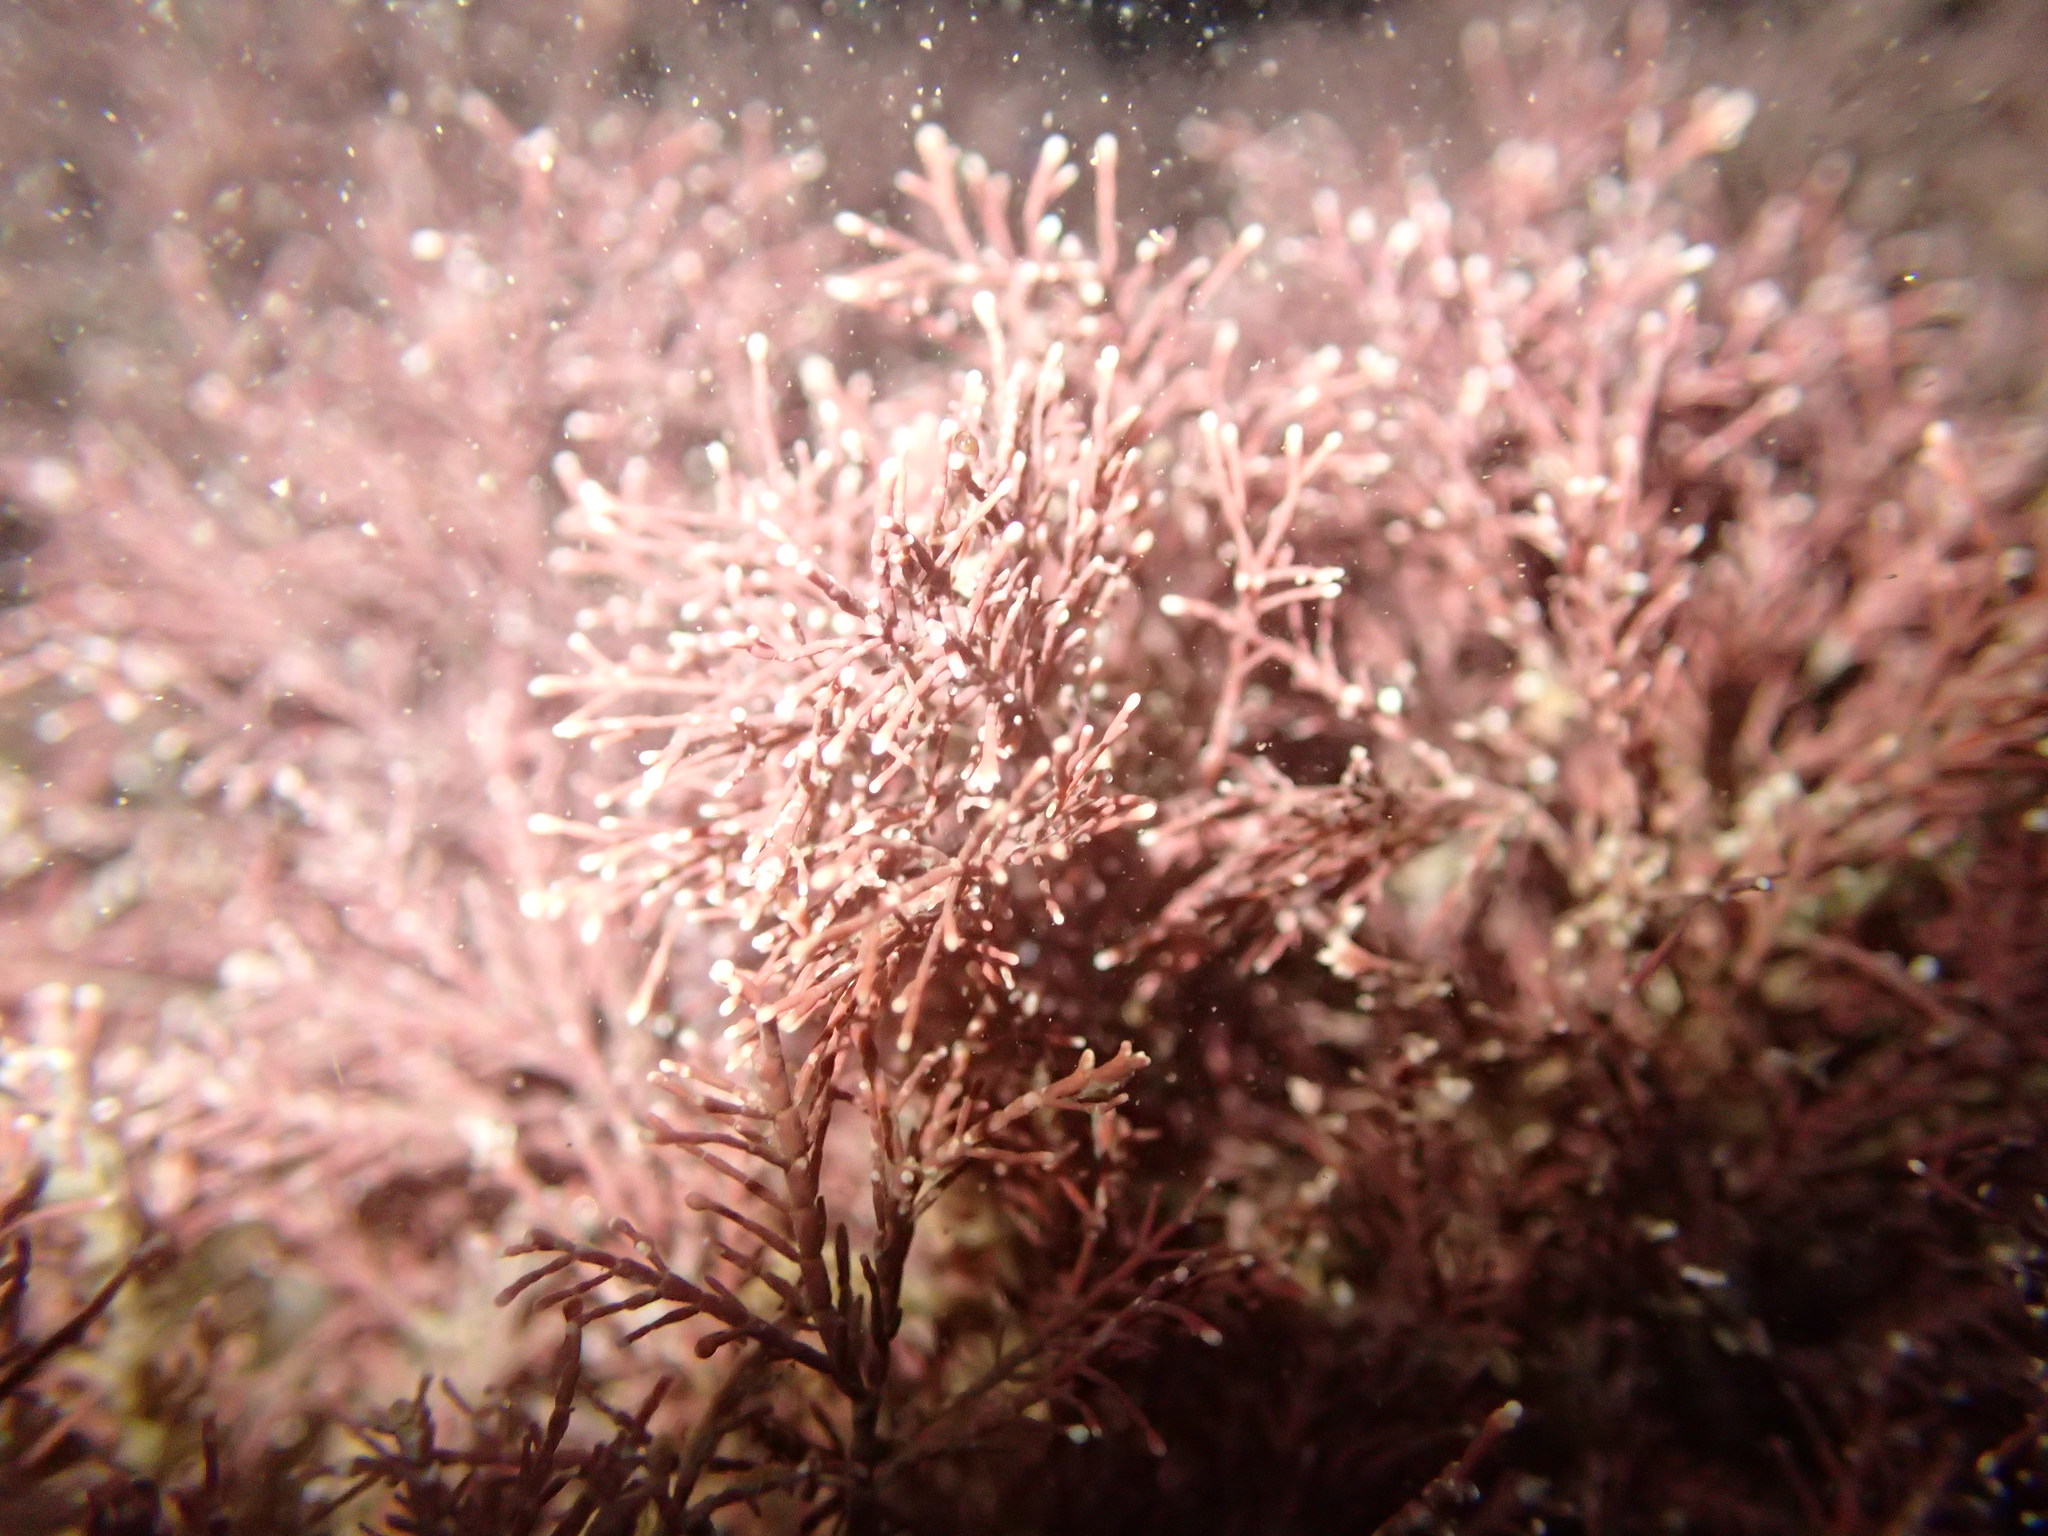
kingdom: Plantae
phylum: Rhodophyta
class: Florideophyceae
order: Corallinales
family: Corallinaceae
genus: Corallina
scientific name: Corallina officinalis
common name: Coral weed
